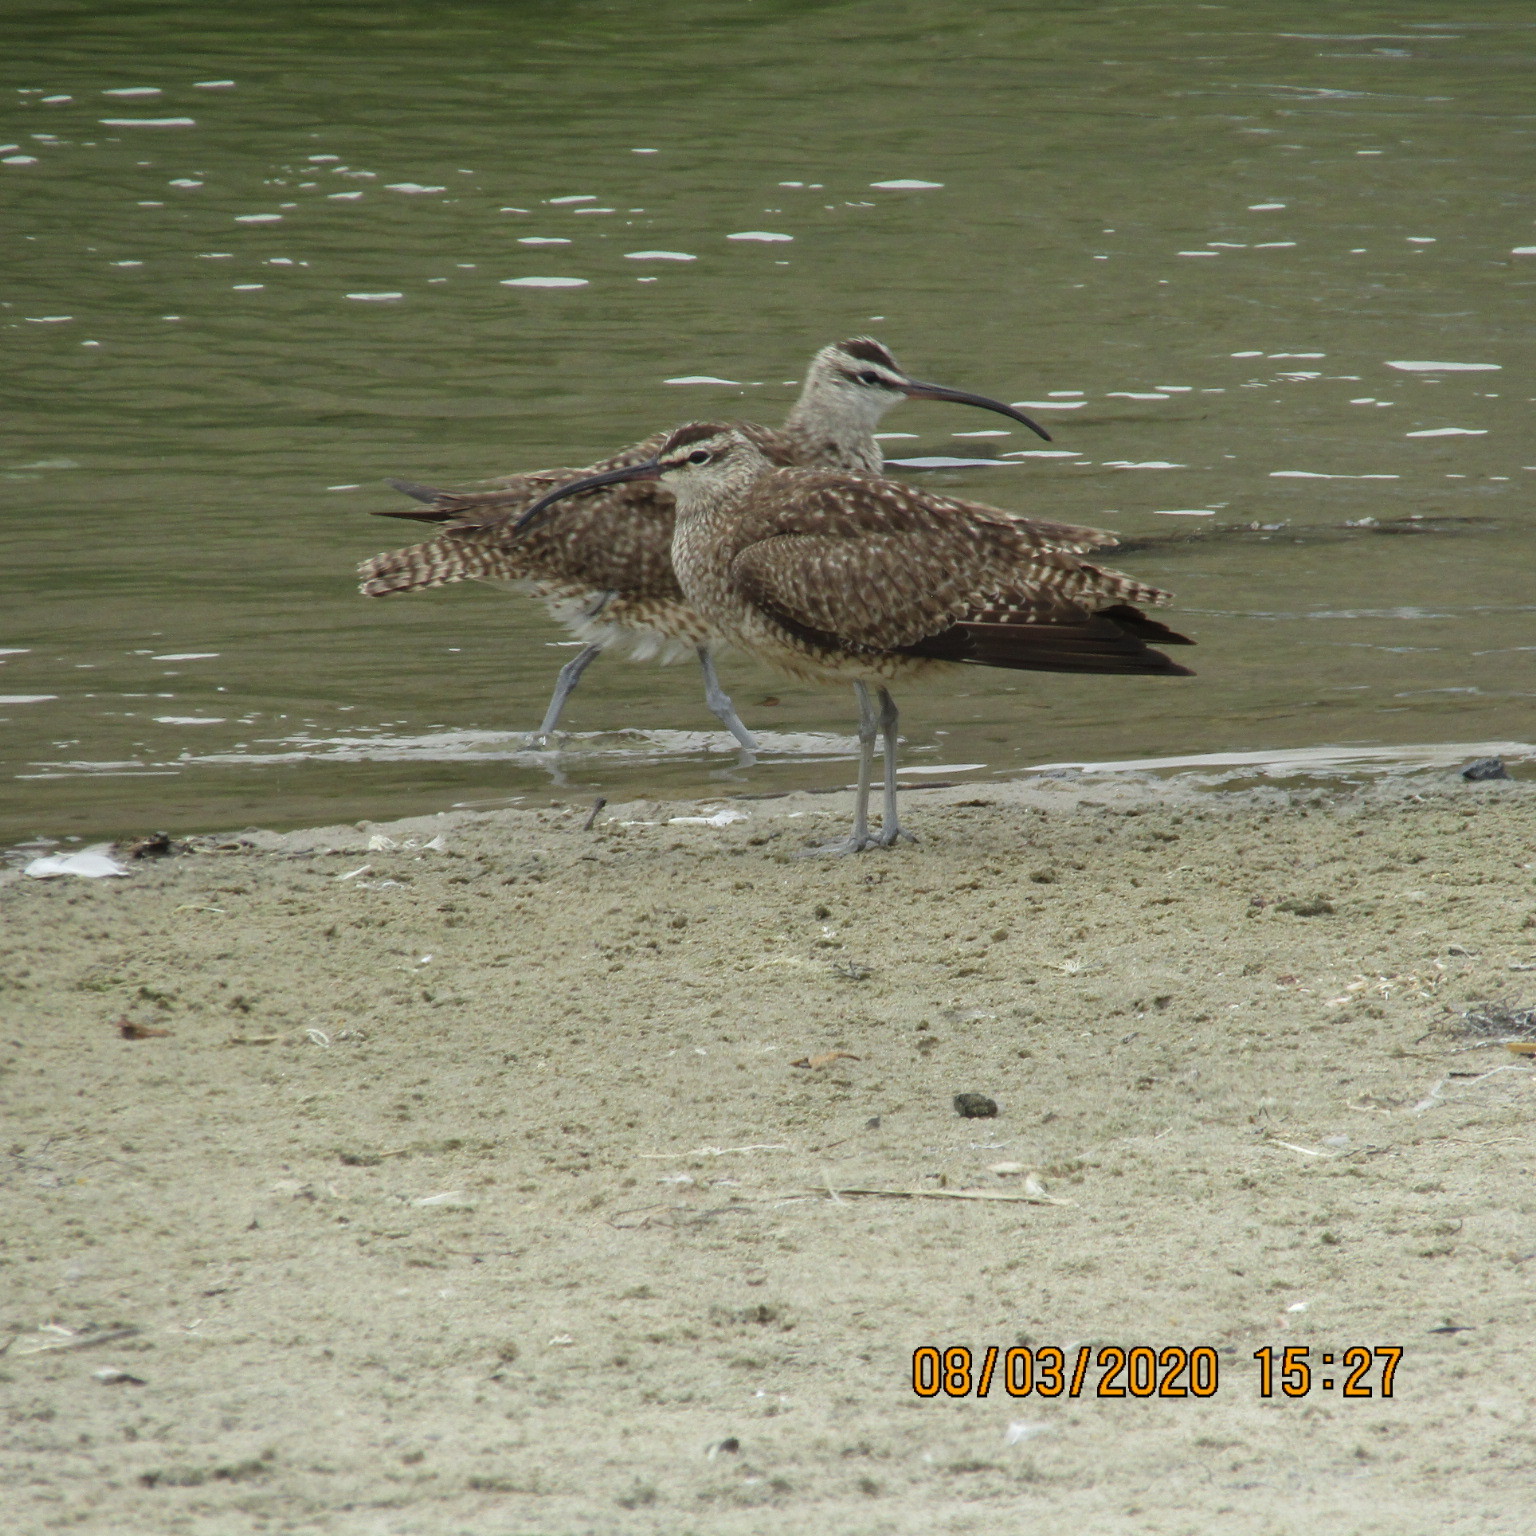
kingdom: Animalia
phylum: Chordata
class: Aves
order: Charadriiformes
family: Scolopacidae
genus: Numenius
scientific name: Numenius phaeopus
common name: Whimbrel
